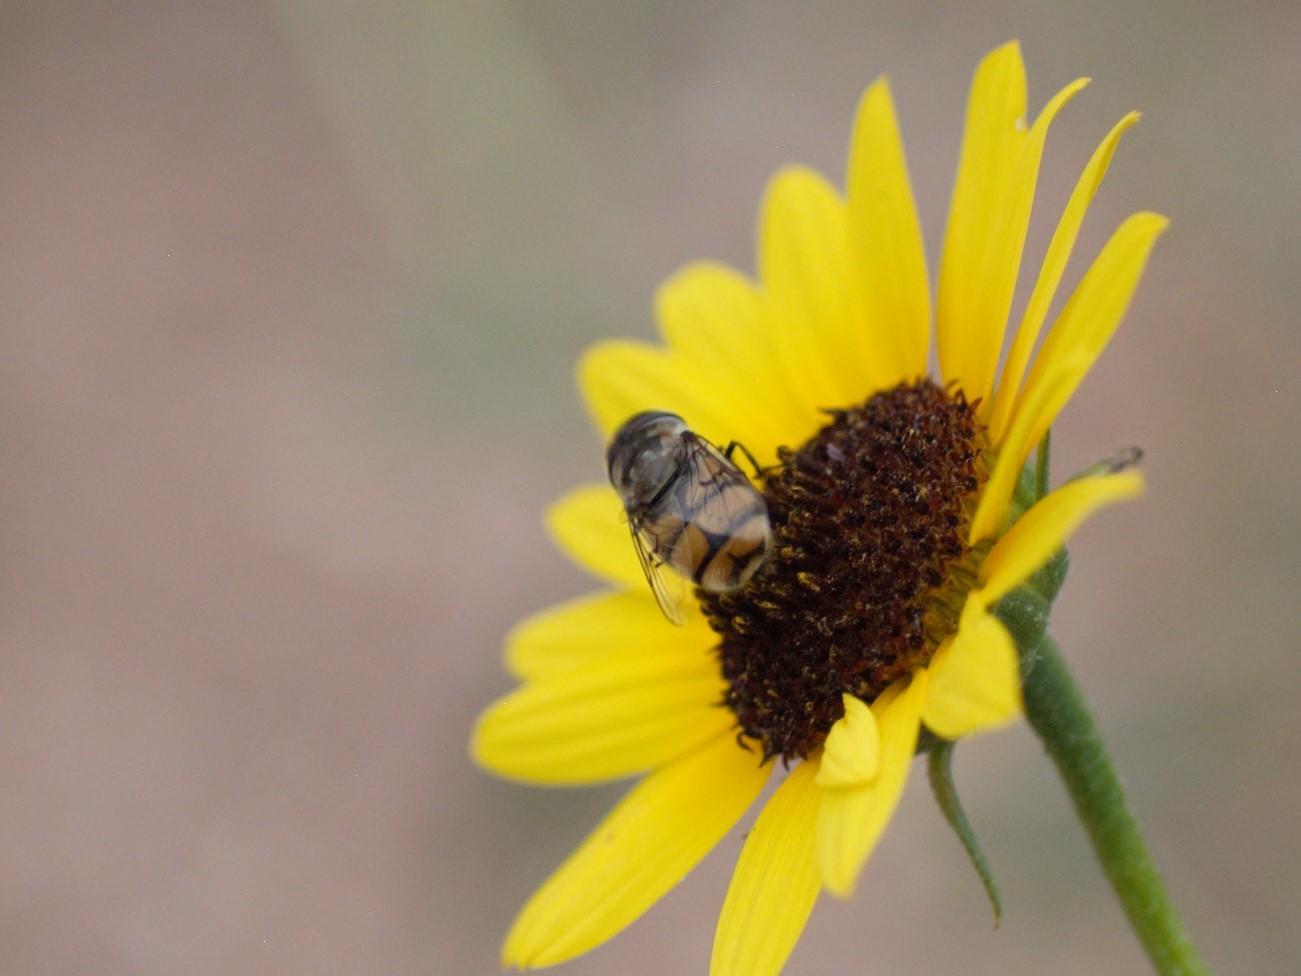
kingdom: Animalia
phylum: Arthropoda
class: Insecta
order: Diptera
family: Syrphidae
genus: Copestylum
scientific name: Copestylum avidum
